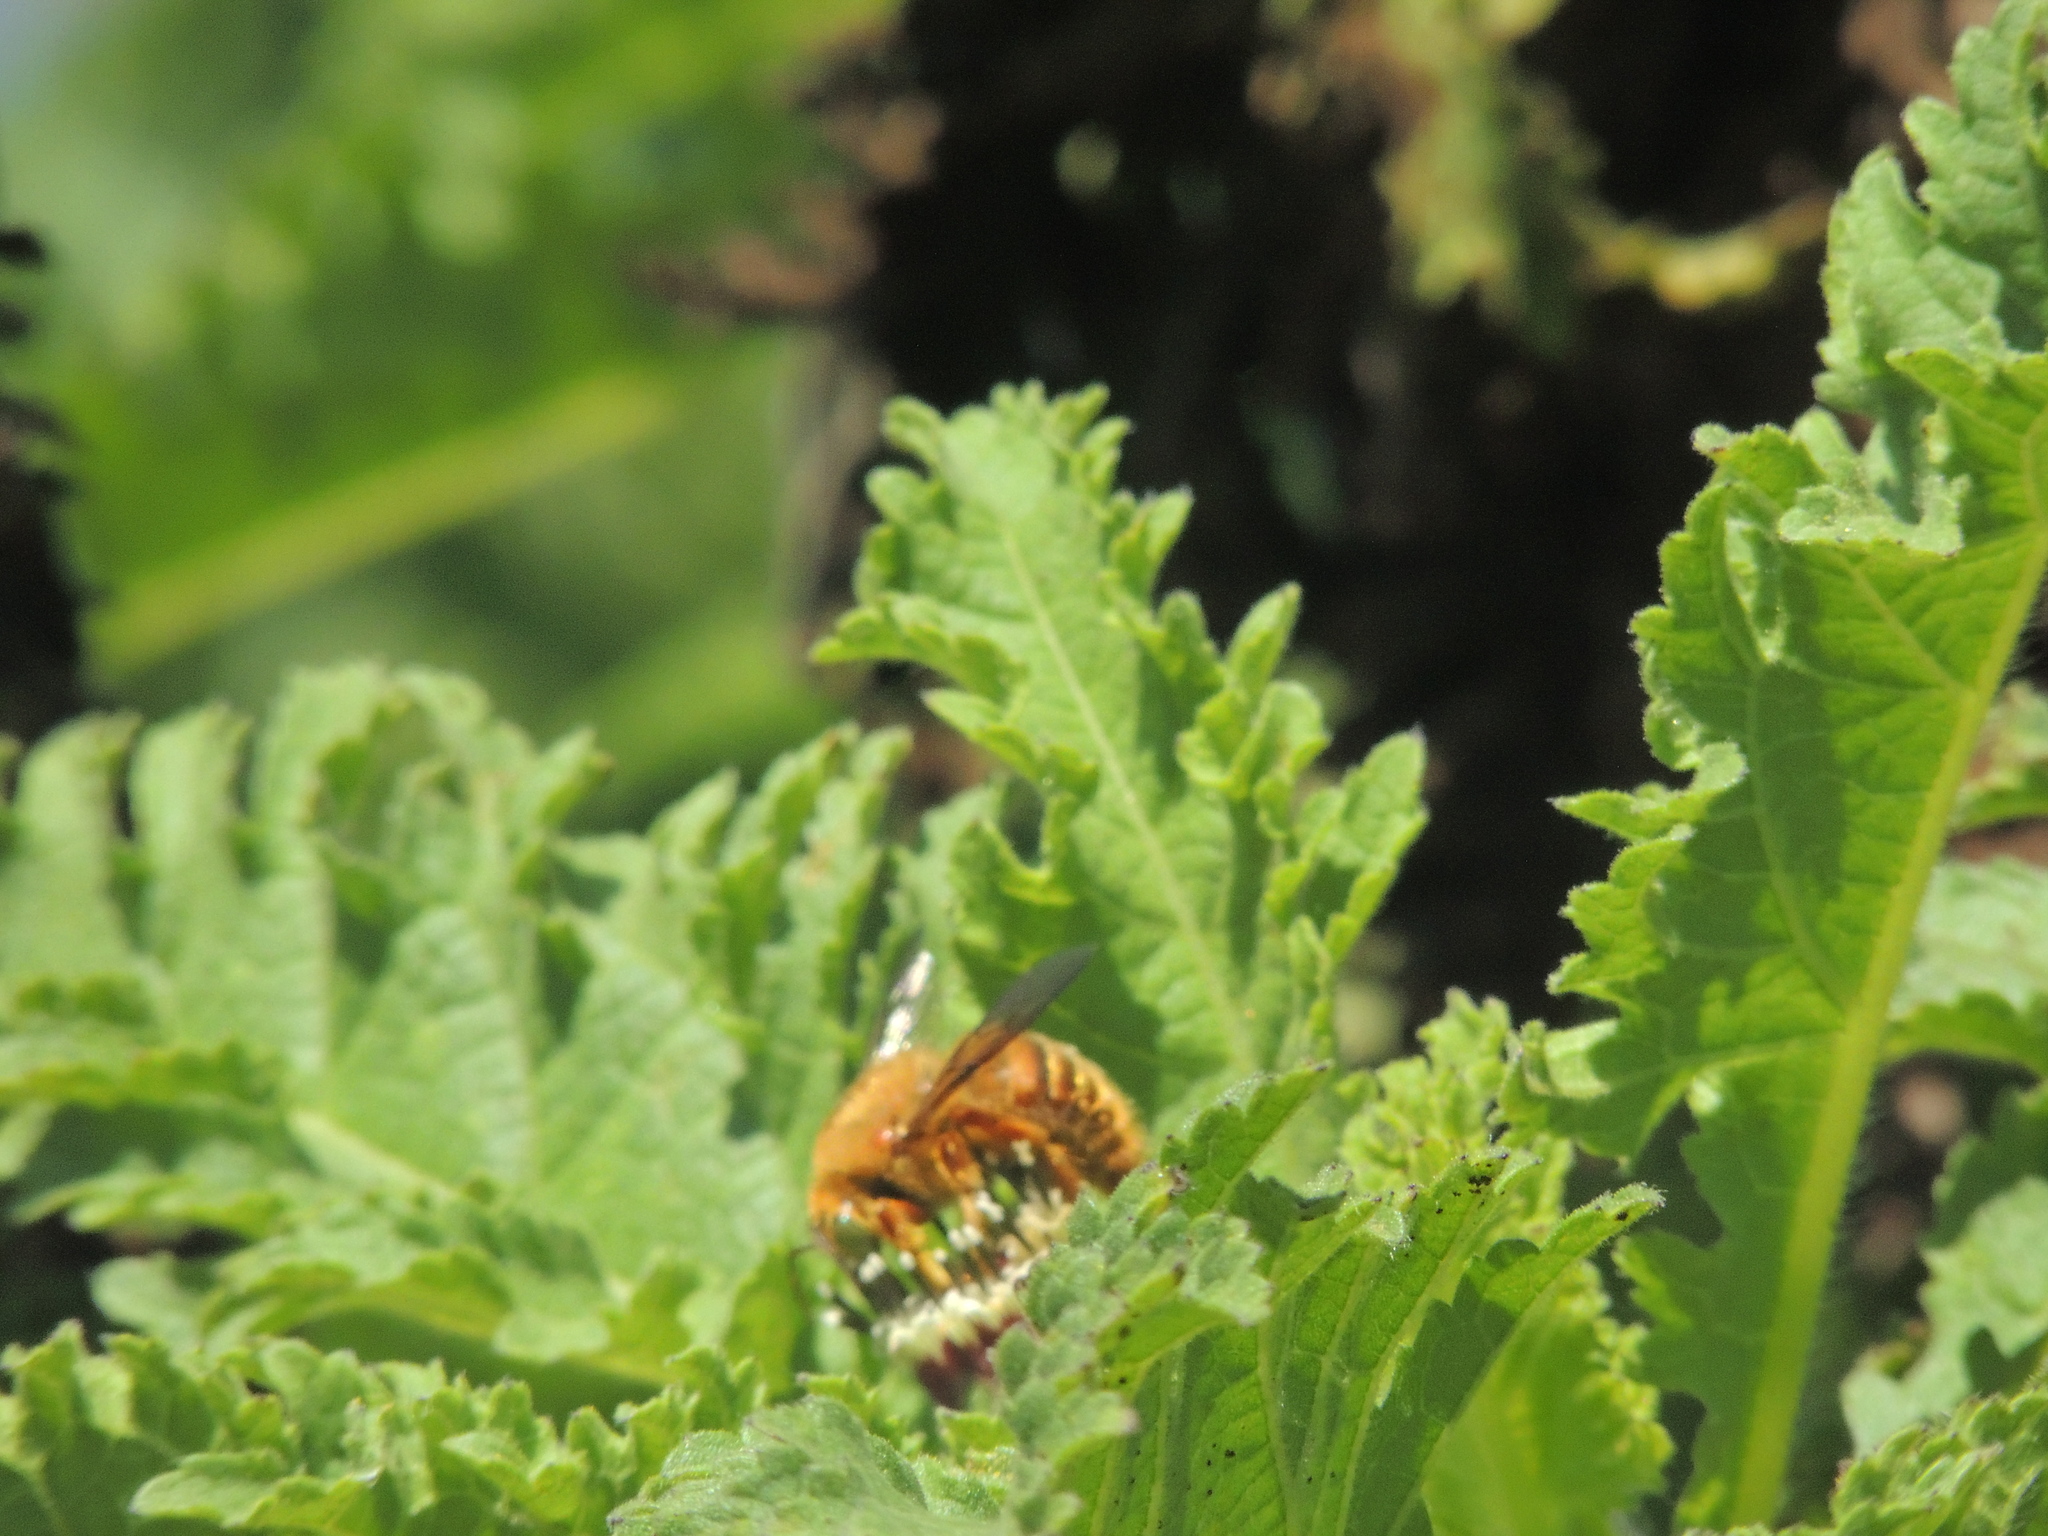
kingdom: Animalia
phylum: Arthropoda
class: Insecta
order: Hymenoptera
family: Apidae
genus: Xylocopa
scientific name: Xylocopa darwini
